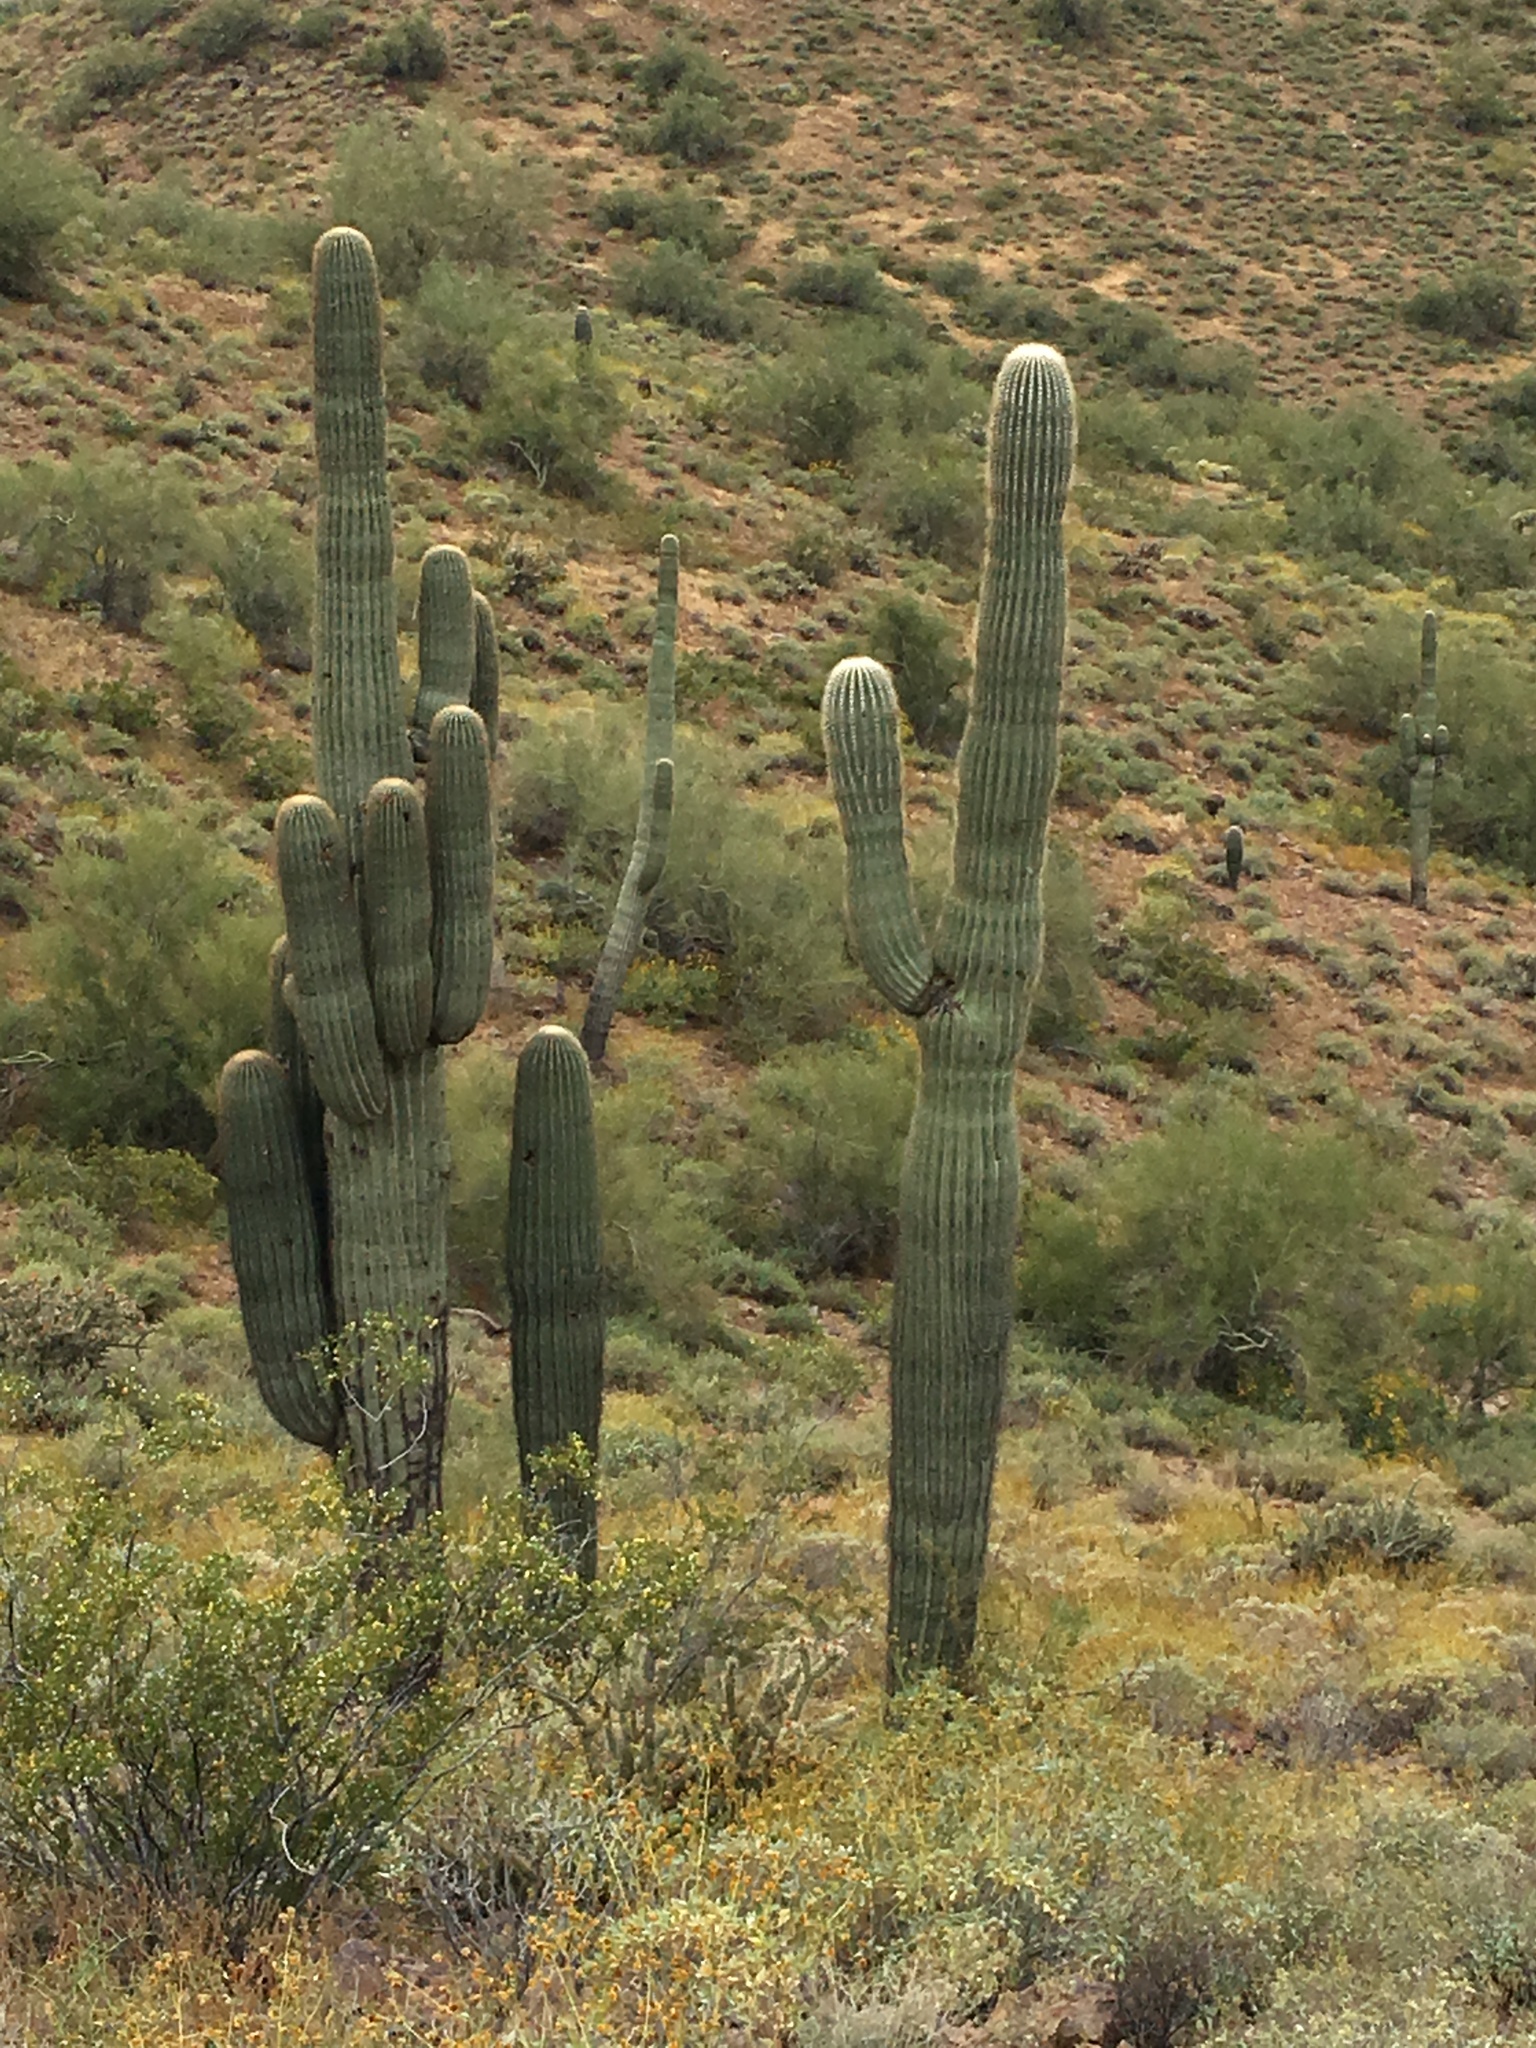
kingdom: Plantae
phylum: Tracheophyta
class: Magnoliopsida
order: Caryophyllales
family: Cactaceae
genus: Carnegiea
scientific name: Carnegiea gigantea
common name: Saguaro
